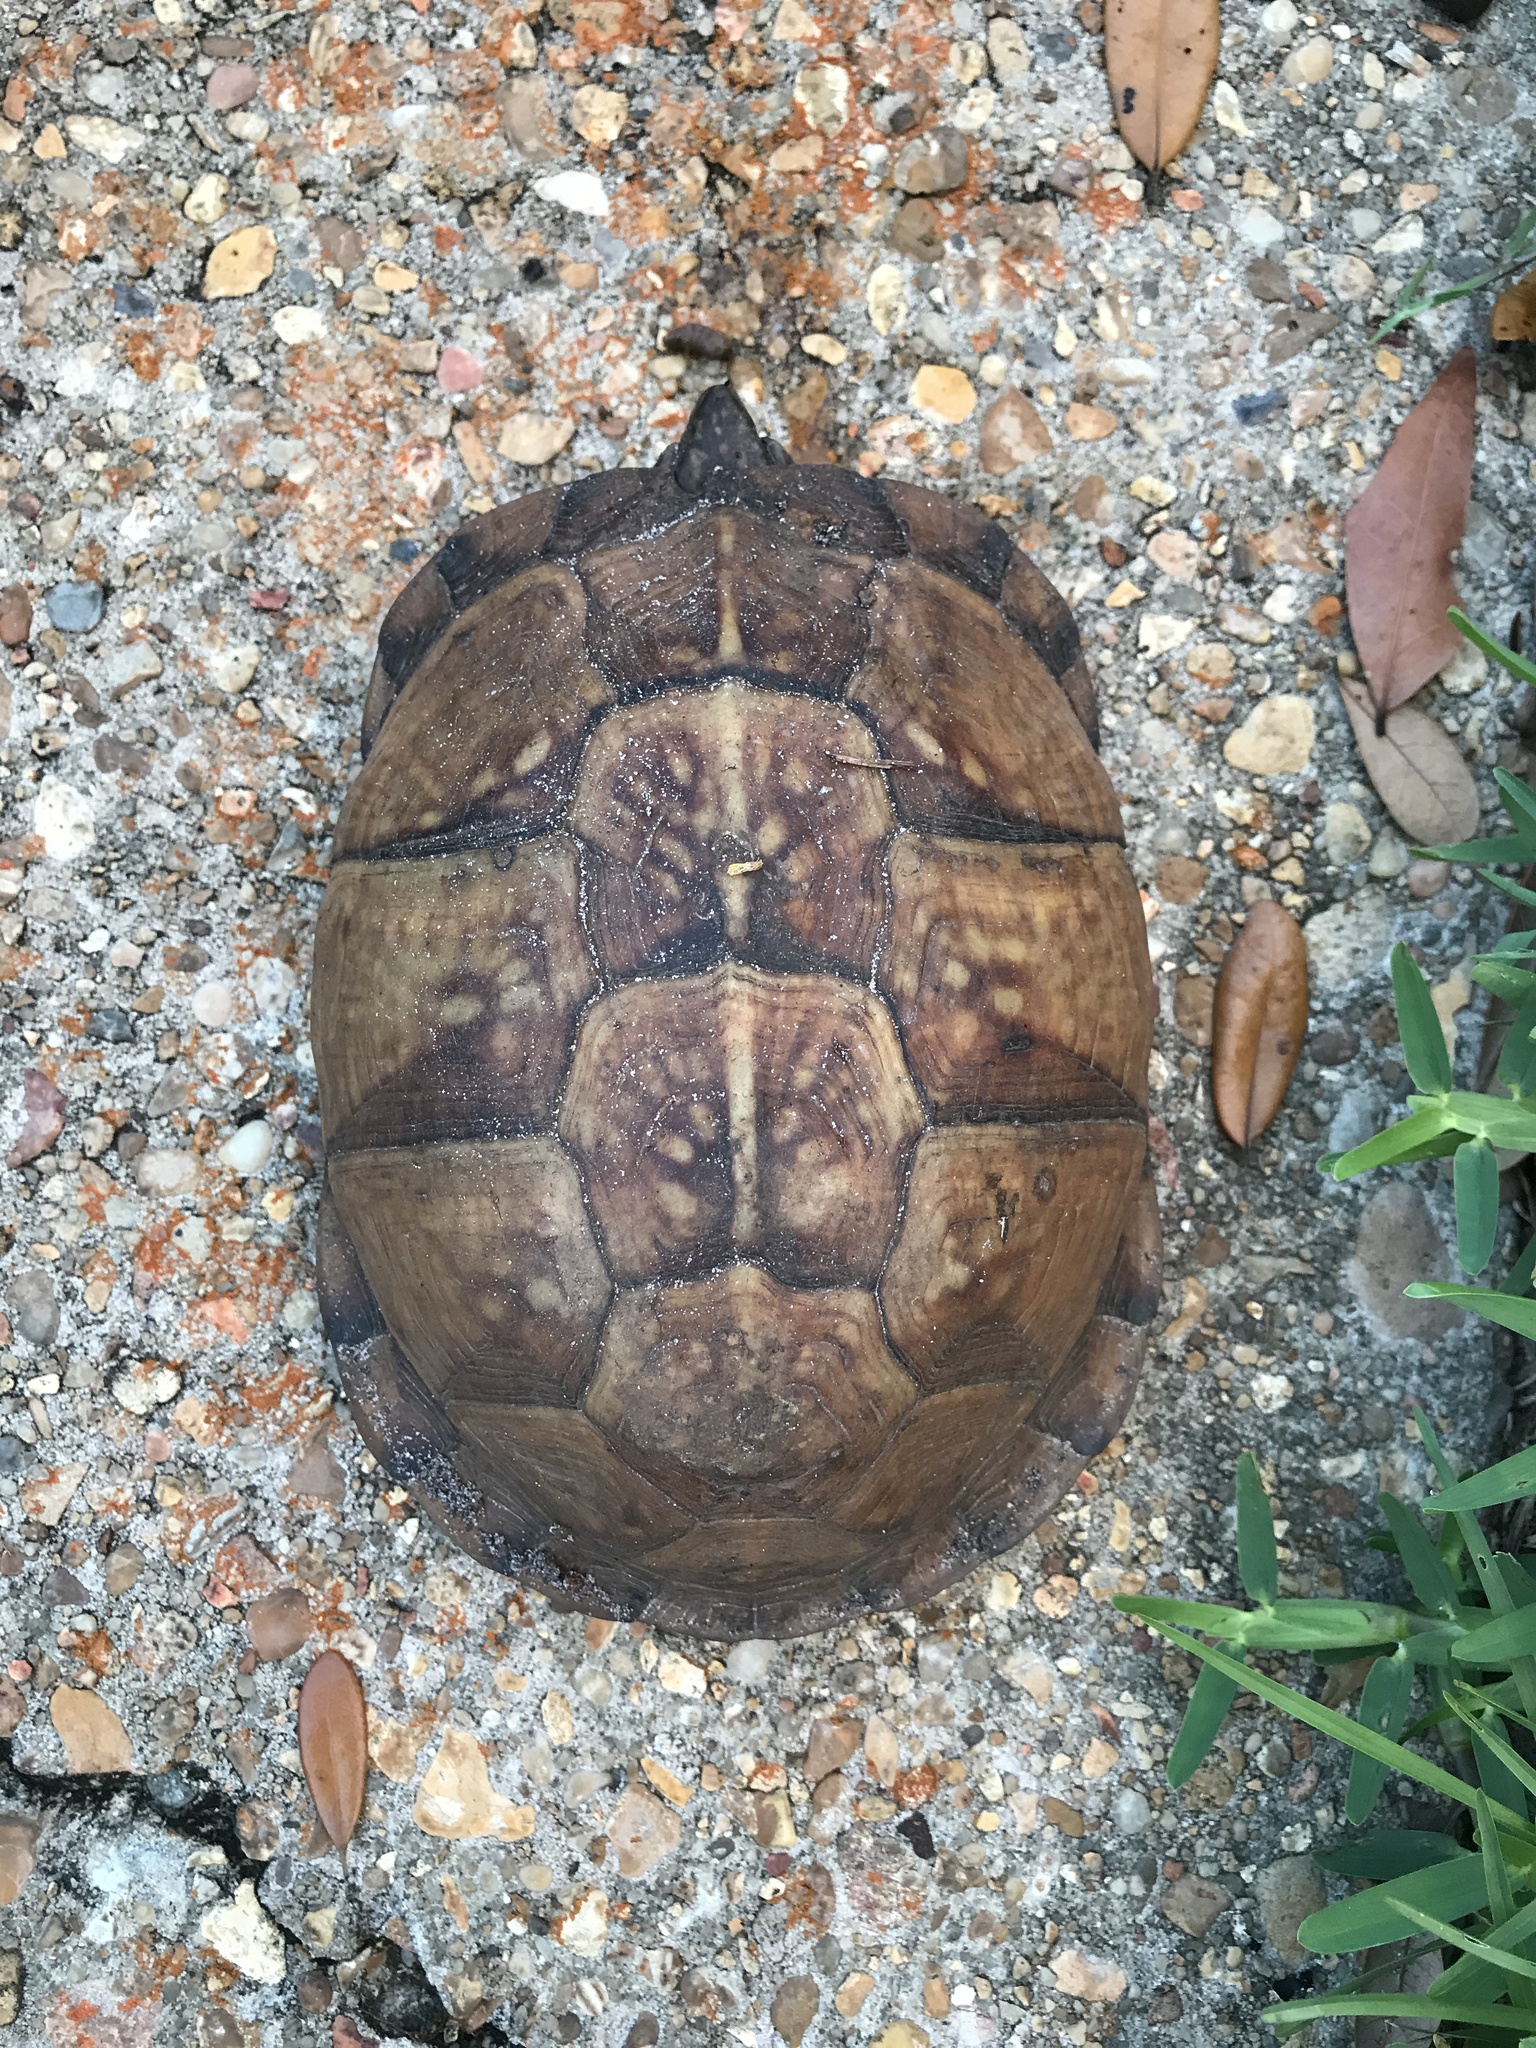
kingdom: Animalia
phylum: Chordata
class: Testudines
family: Emydidae
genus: Terrapene
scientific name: Terrapene carolina
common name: Common box turtle
